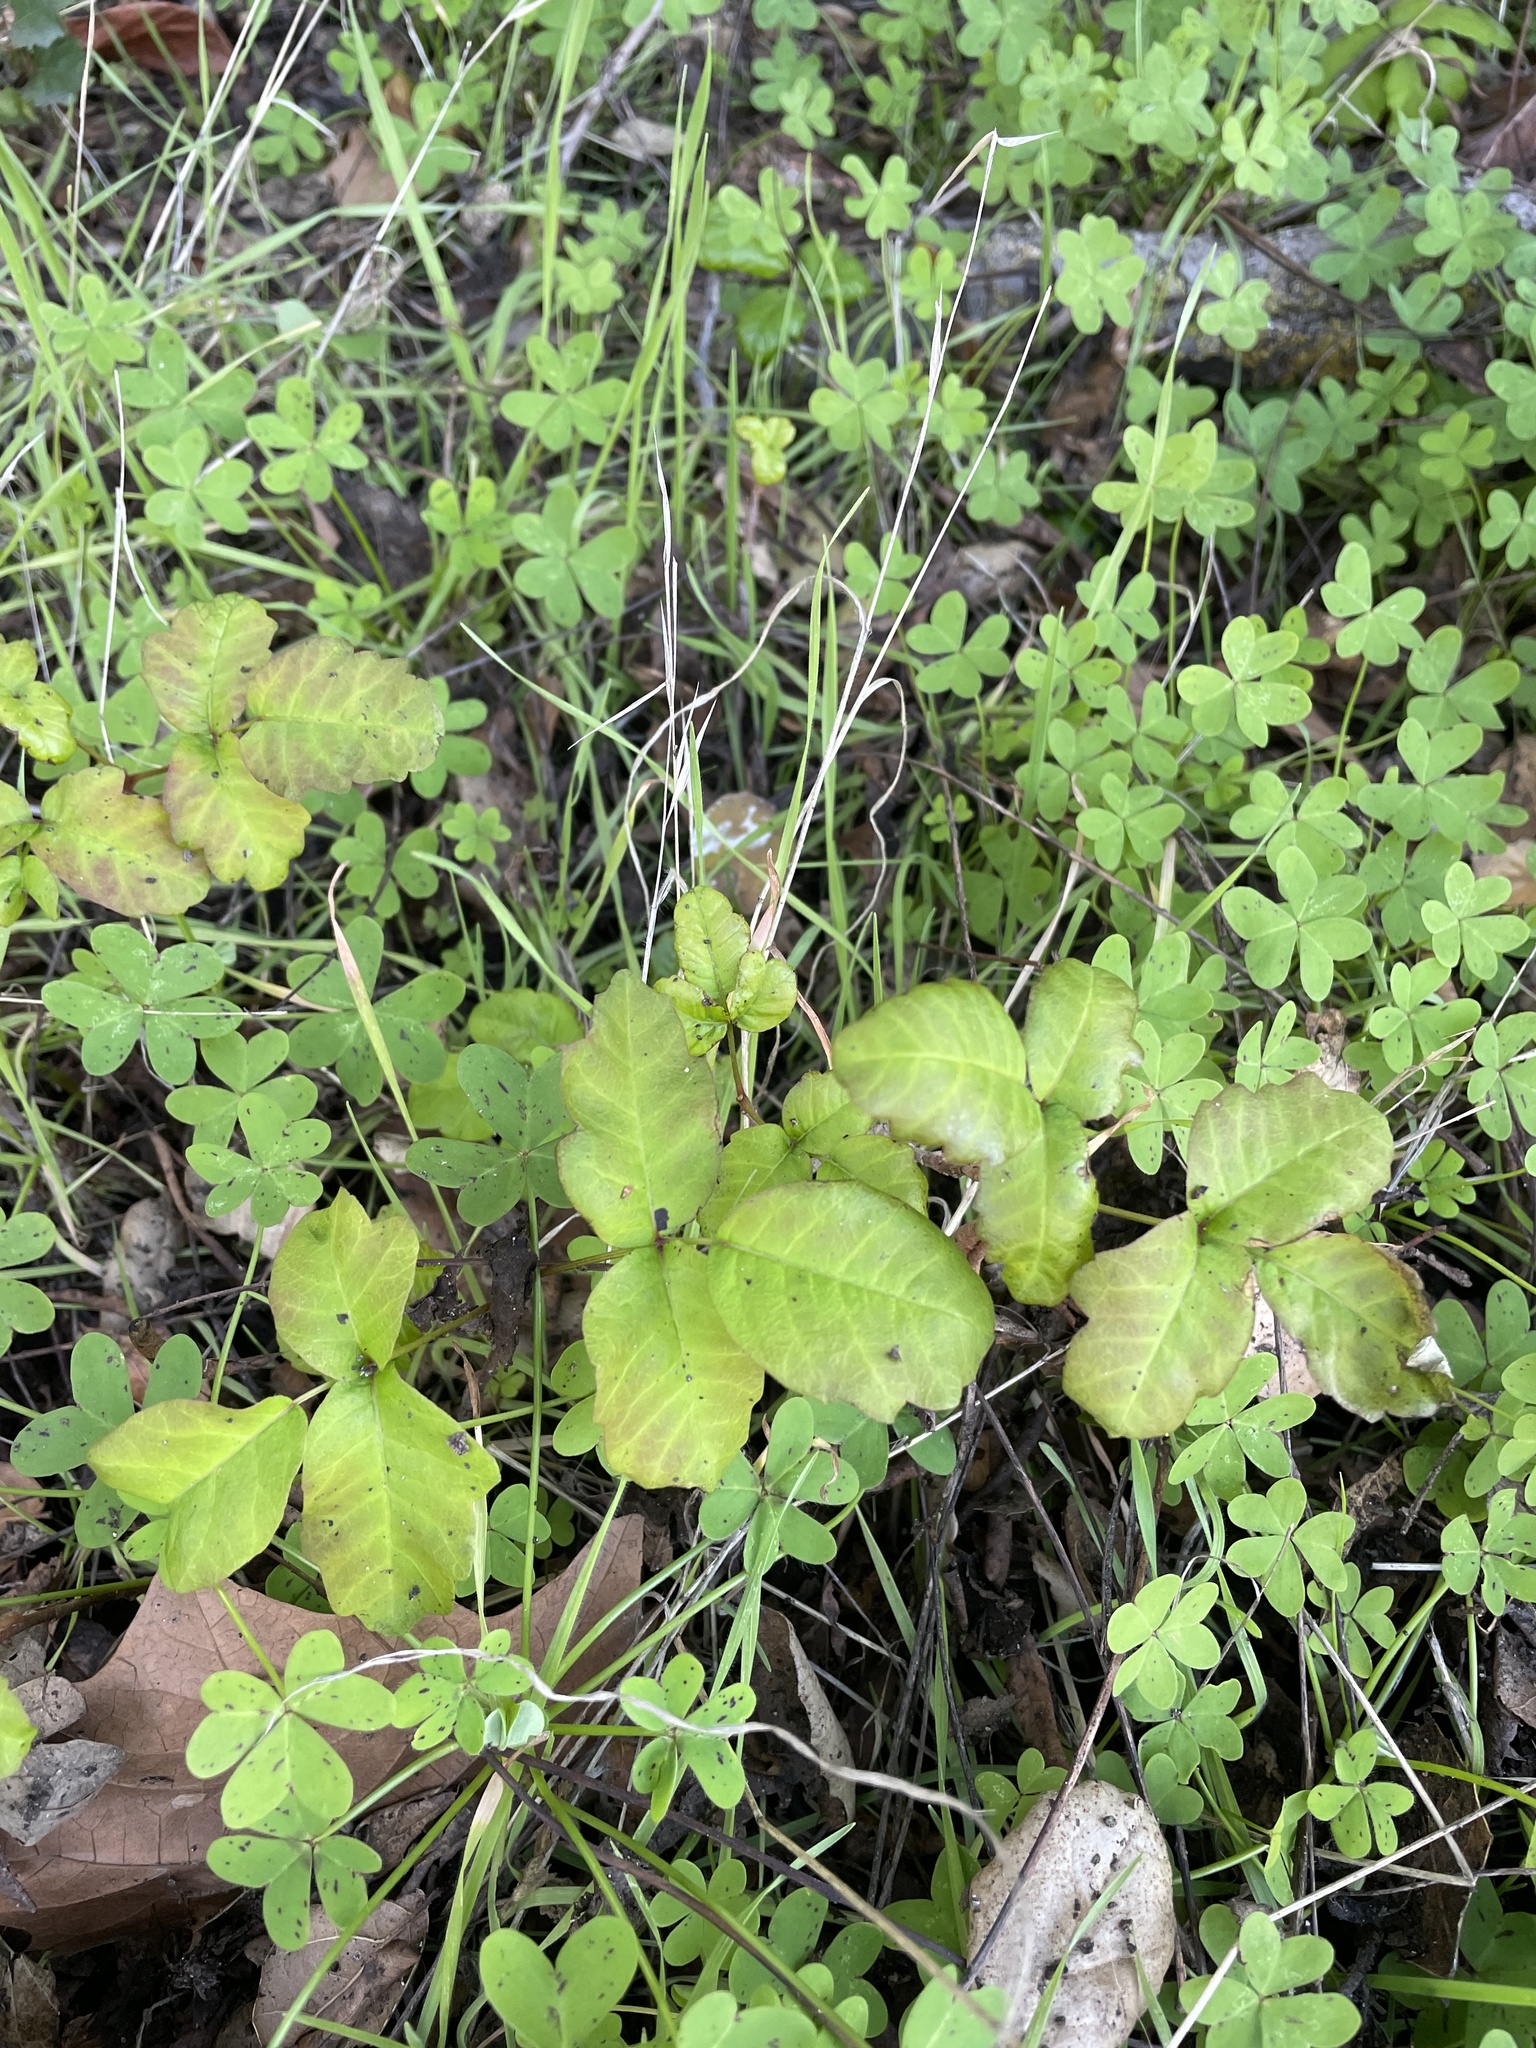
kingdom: Plantae
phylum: Tracheophyta
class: Magnoliopsida
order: Sapindales
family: Anacardiaceae
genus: Toxicodendron
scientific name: Toxicodendron diversilobum
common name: Pacific poison-oak
